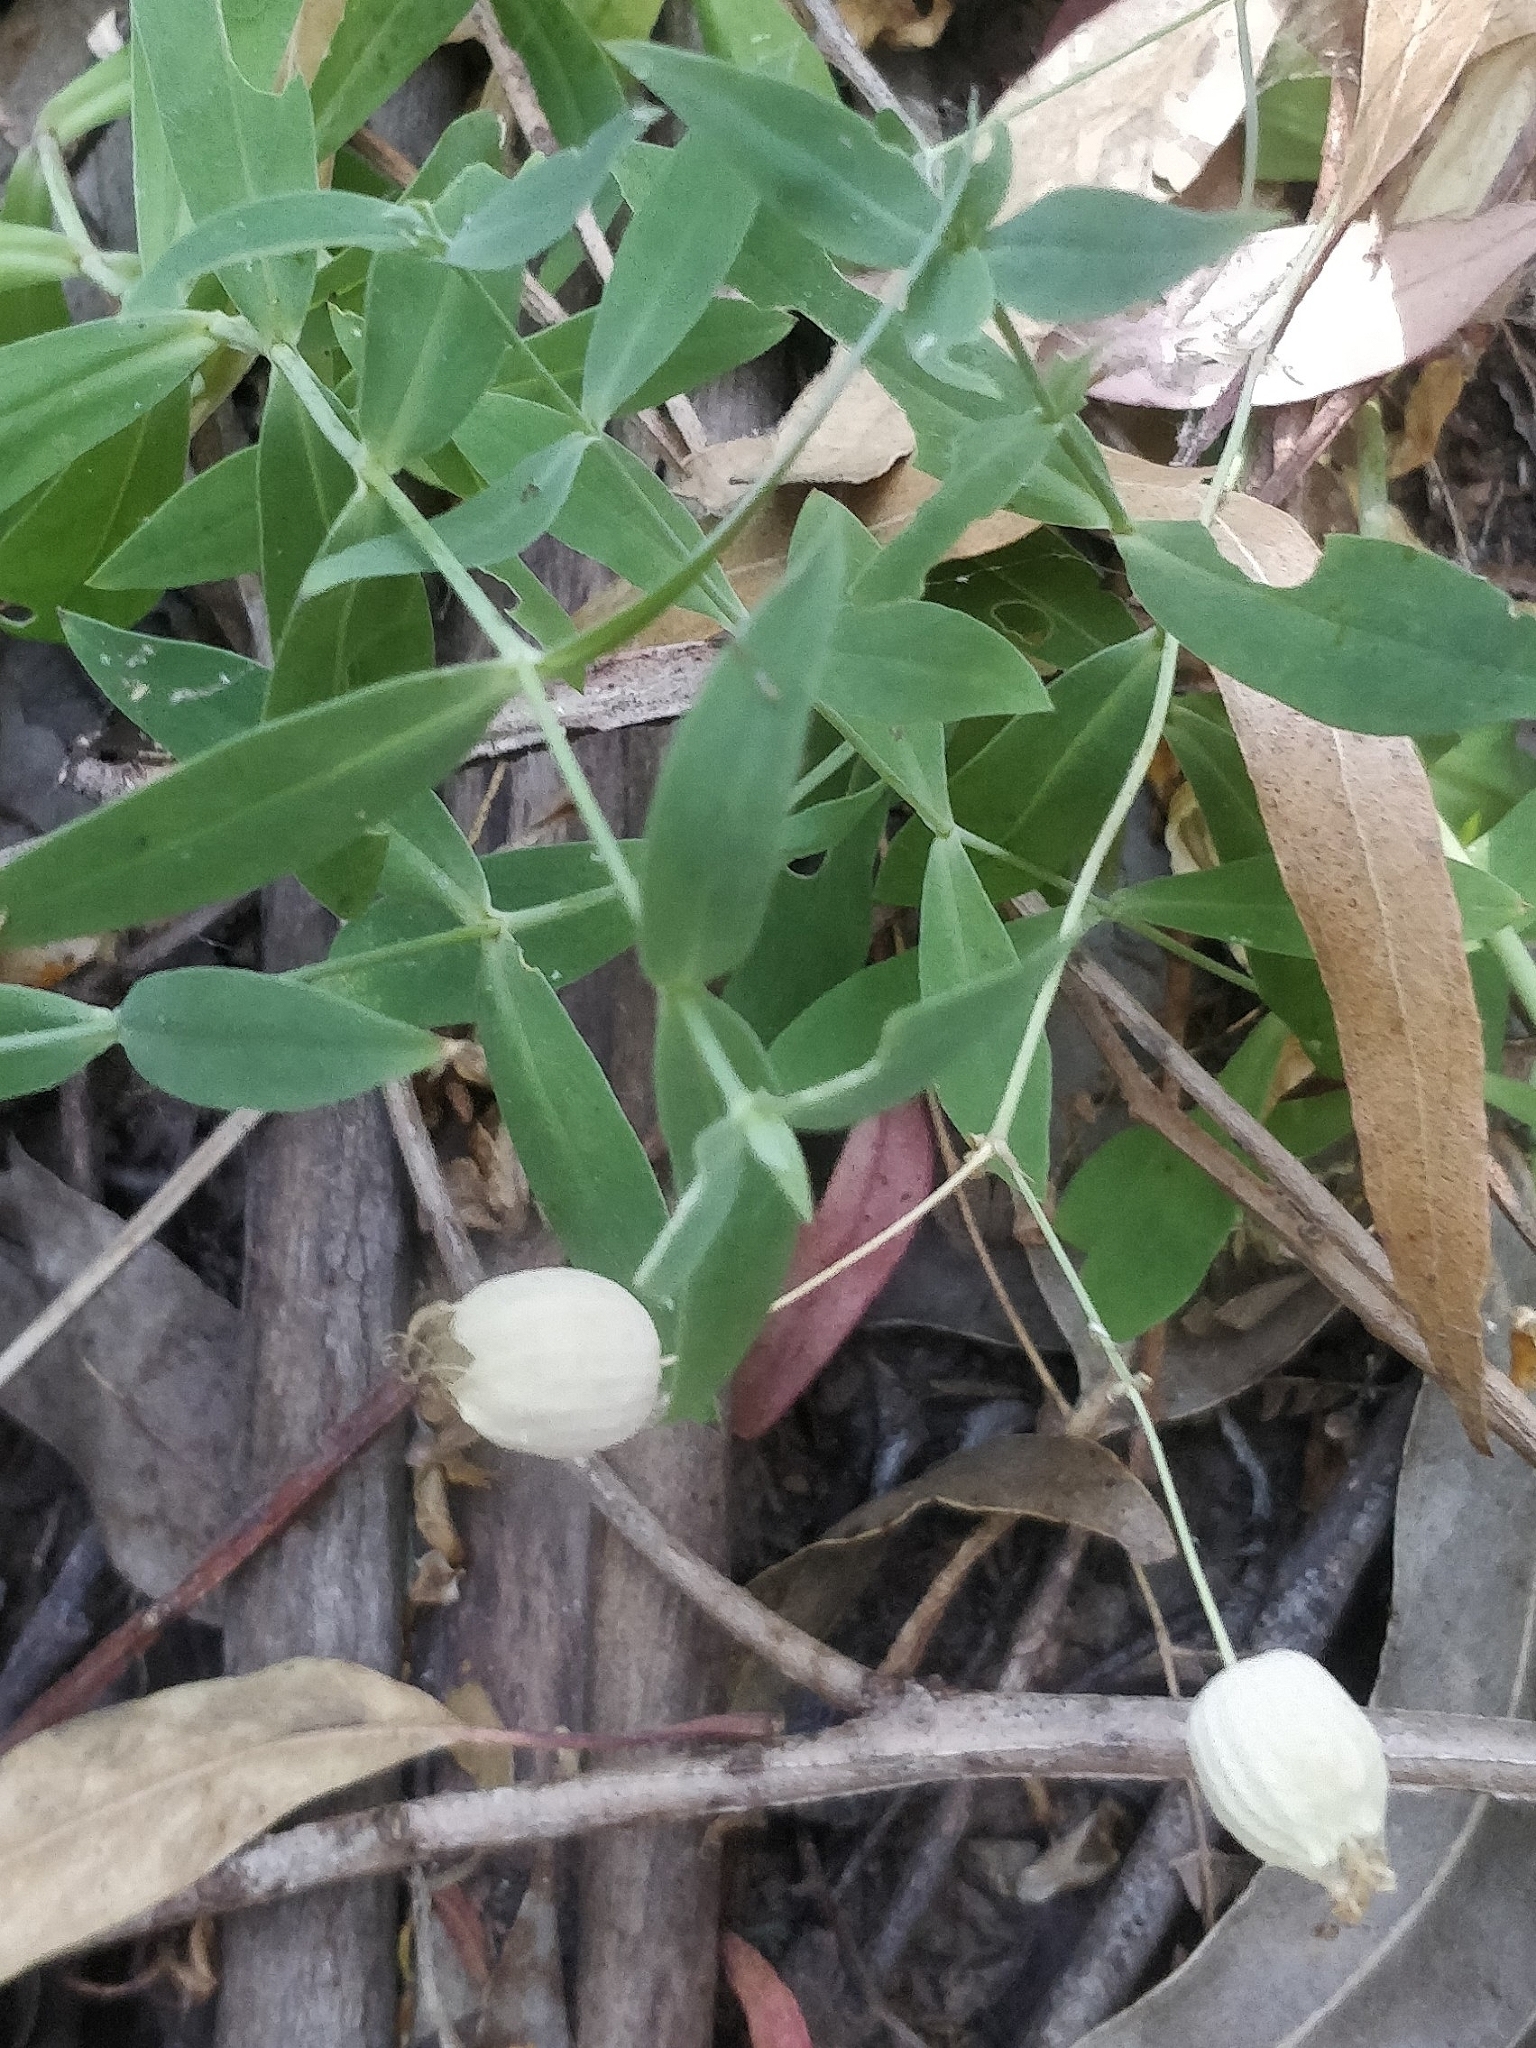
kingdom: Plantae
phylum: Tracheophyta
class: Magnoliopsida
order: Caryophyllales
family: Caryophyllaceae
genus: Silene
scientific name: Silene vulgaris
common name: Bladder campion
